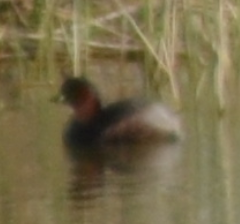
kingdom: Animalia
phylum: Chordata
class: Aves
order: Podicipediformes
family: Podicipedidae
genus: Tachybaptus
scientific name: Tachybaptus ruficollis
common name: Little grebe
